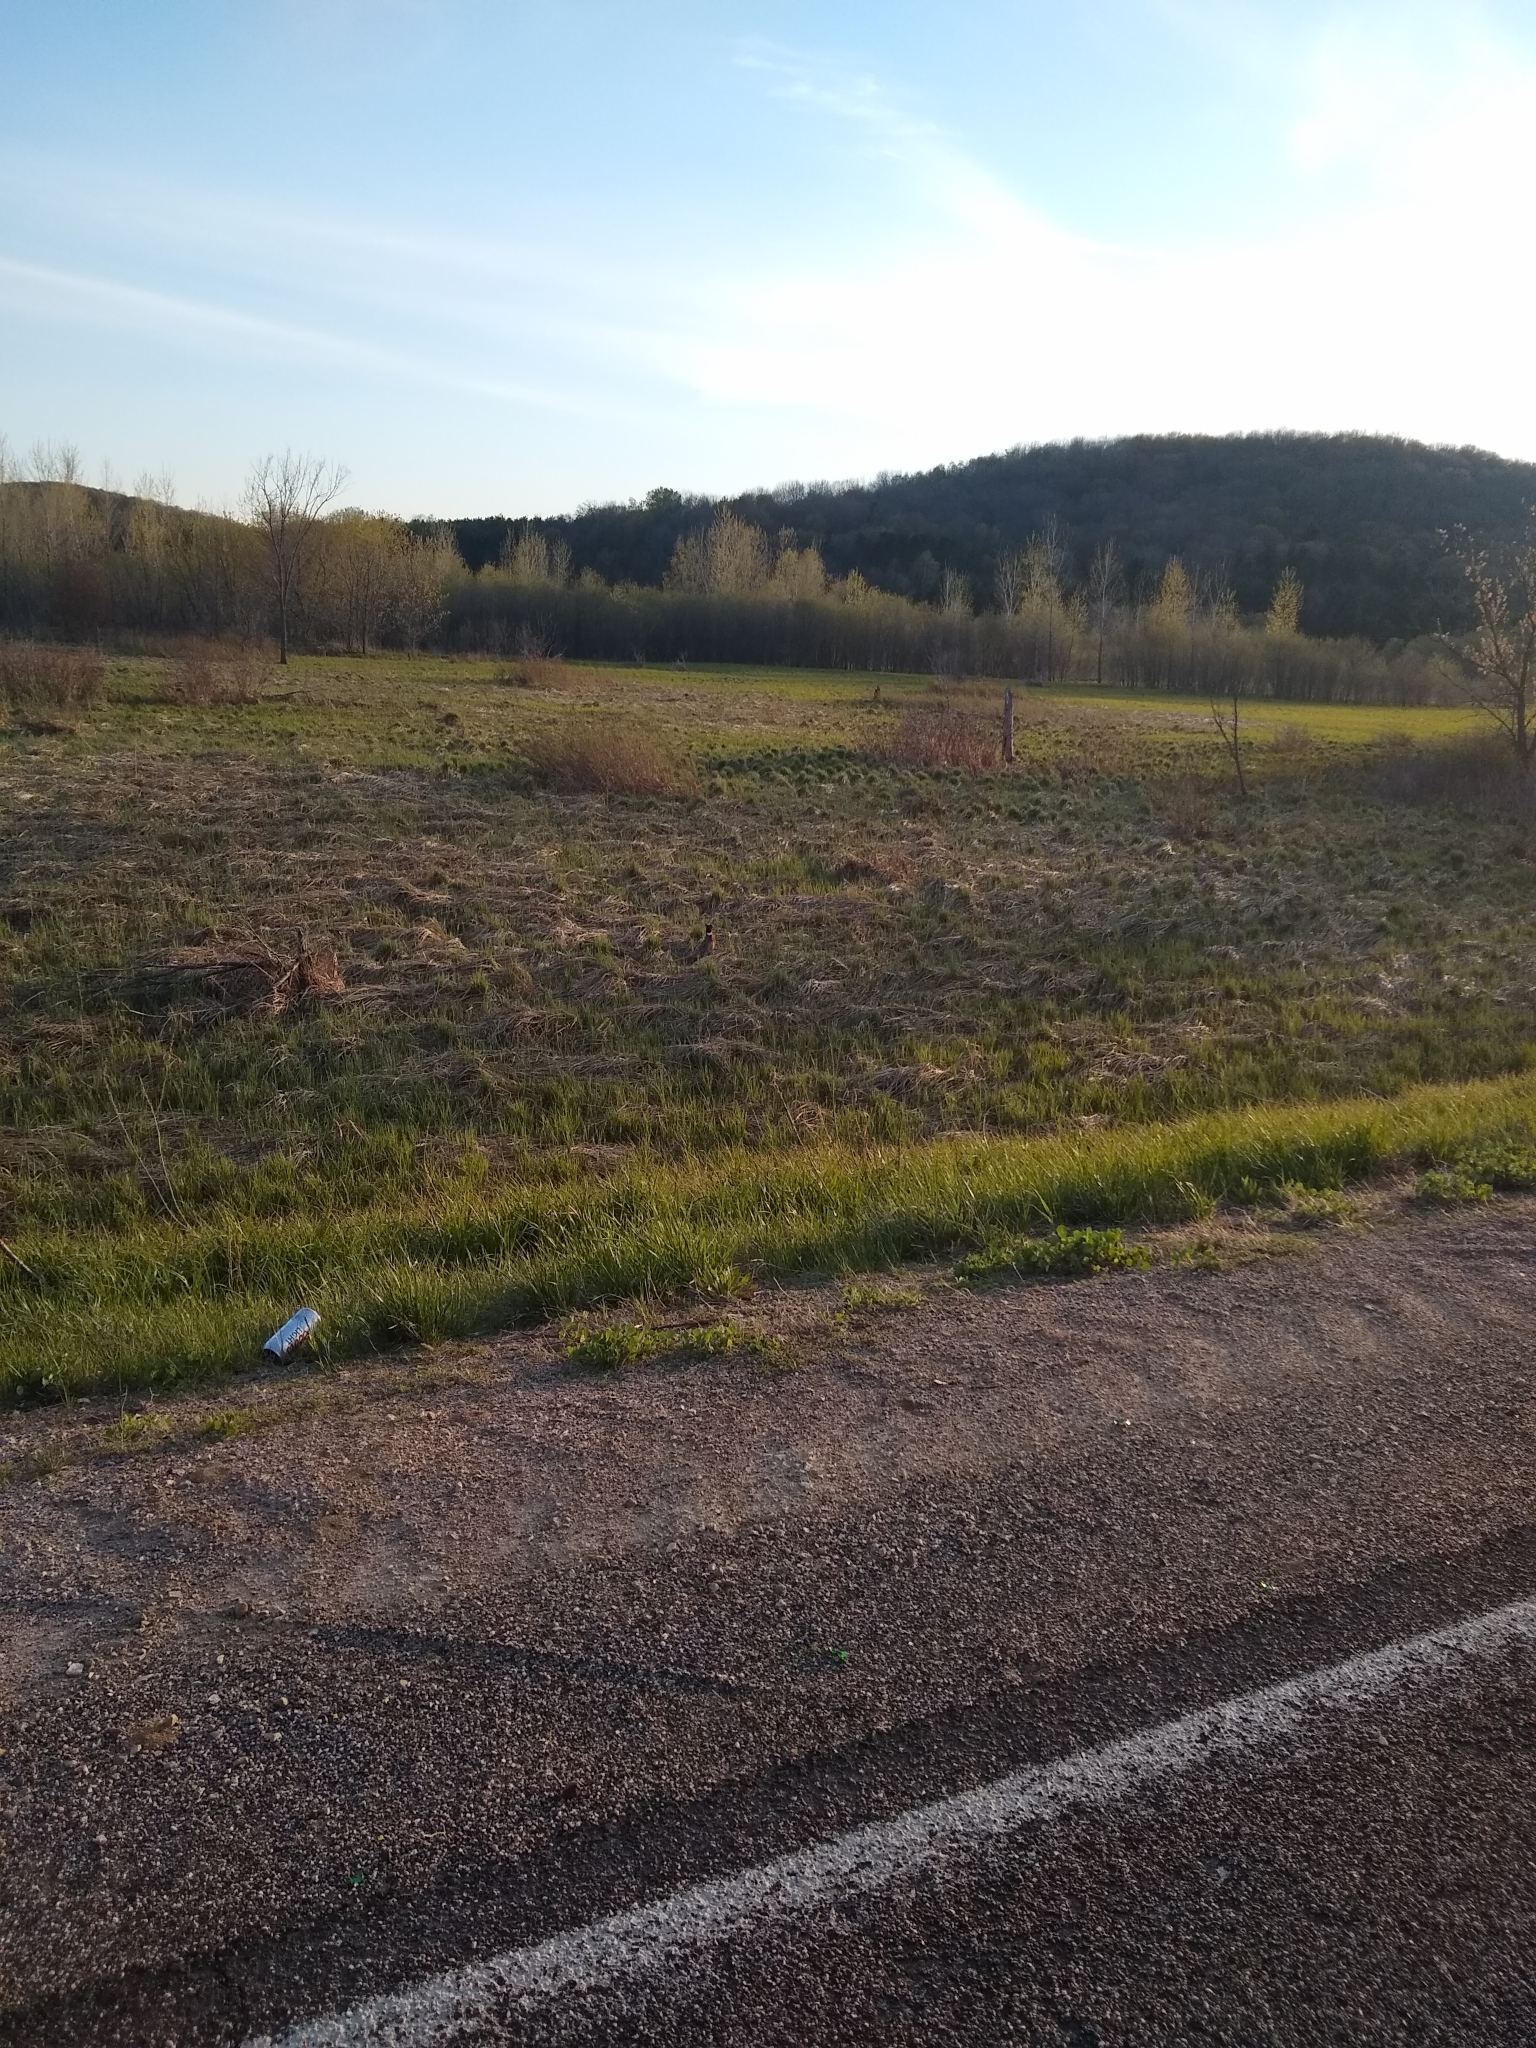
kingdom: Animalia
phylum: Chordata
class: Aves
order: Galliformes
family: Phasianidae
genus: Phasianus
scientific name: Phasianus colchicus
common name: Common pheasant
